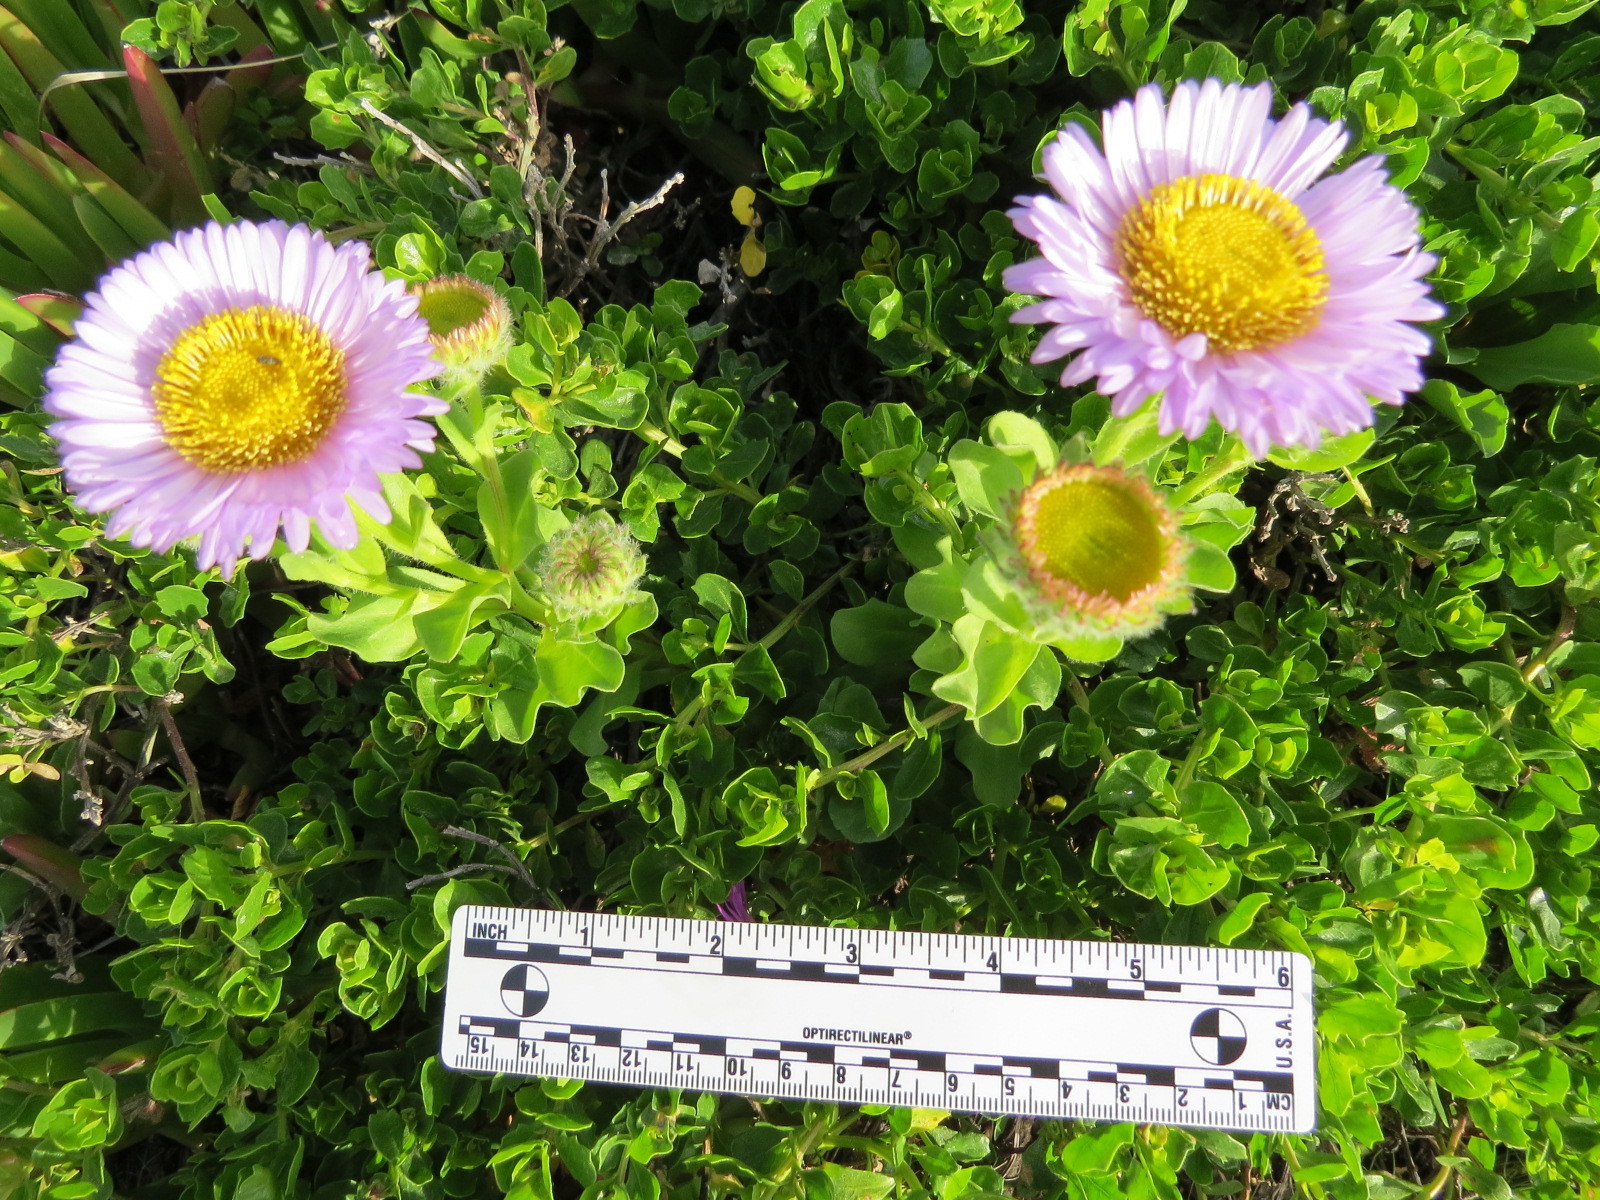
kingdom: Plantae
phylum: Tracheophyta
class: Magnoliopsida
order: Asterales
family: Asteraceae
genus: Erigeron
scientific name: Erigeron glaucus
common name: Seaside daisy
